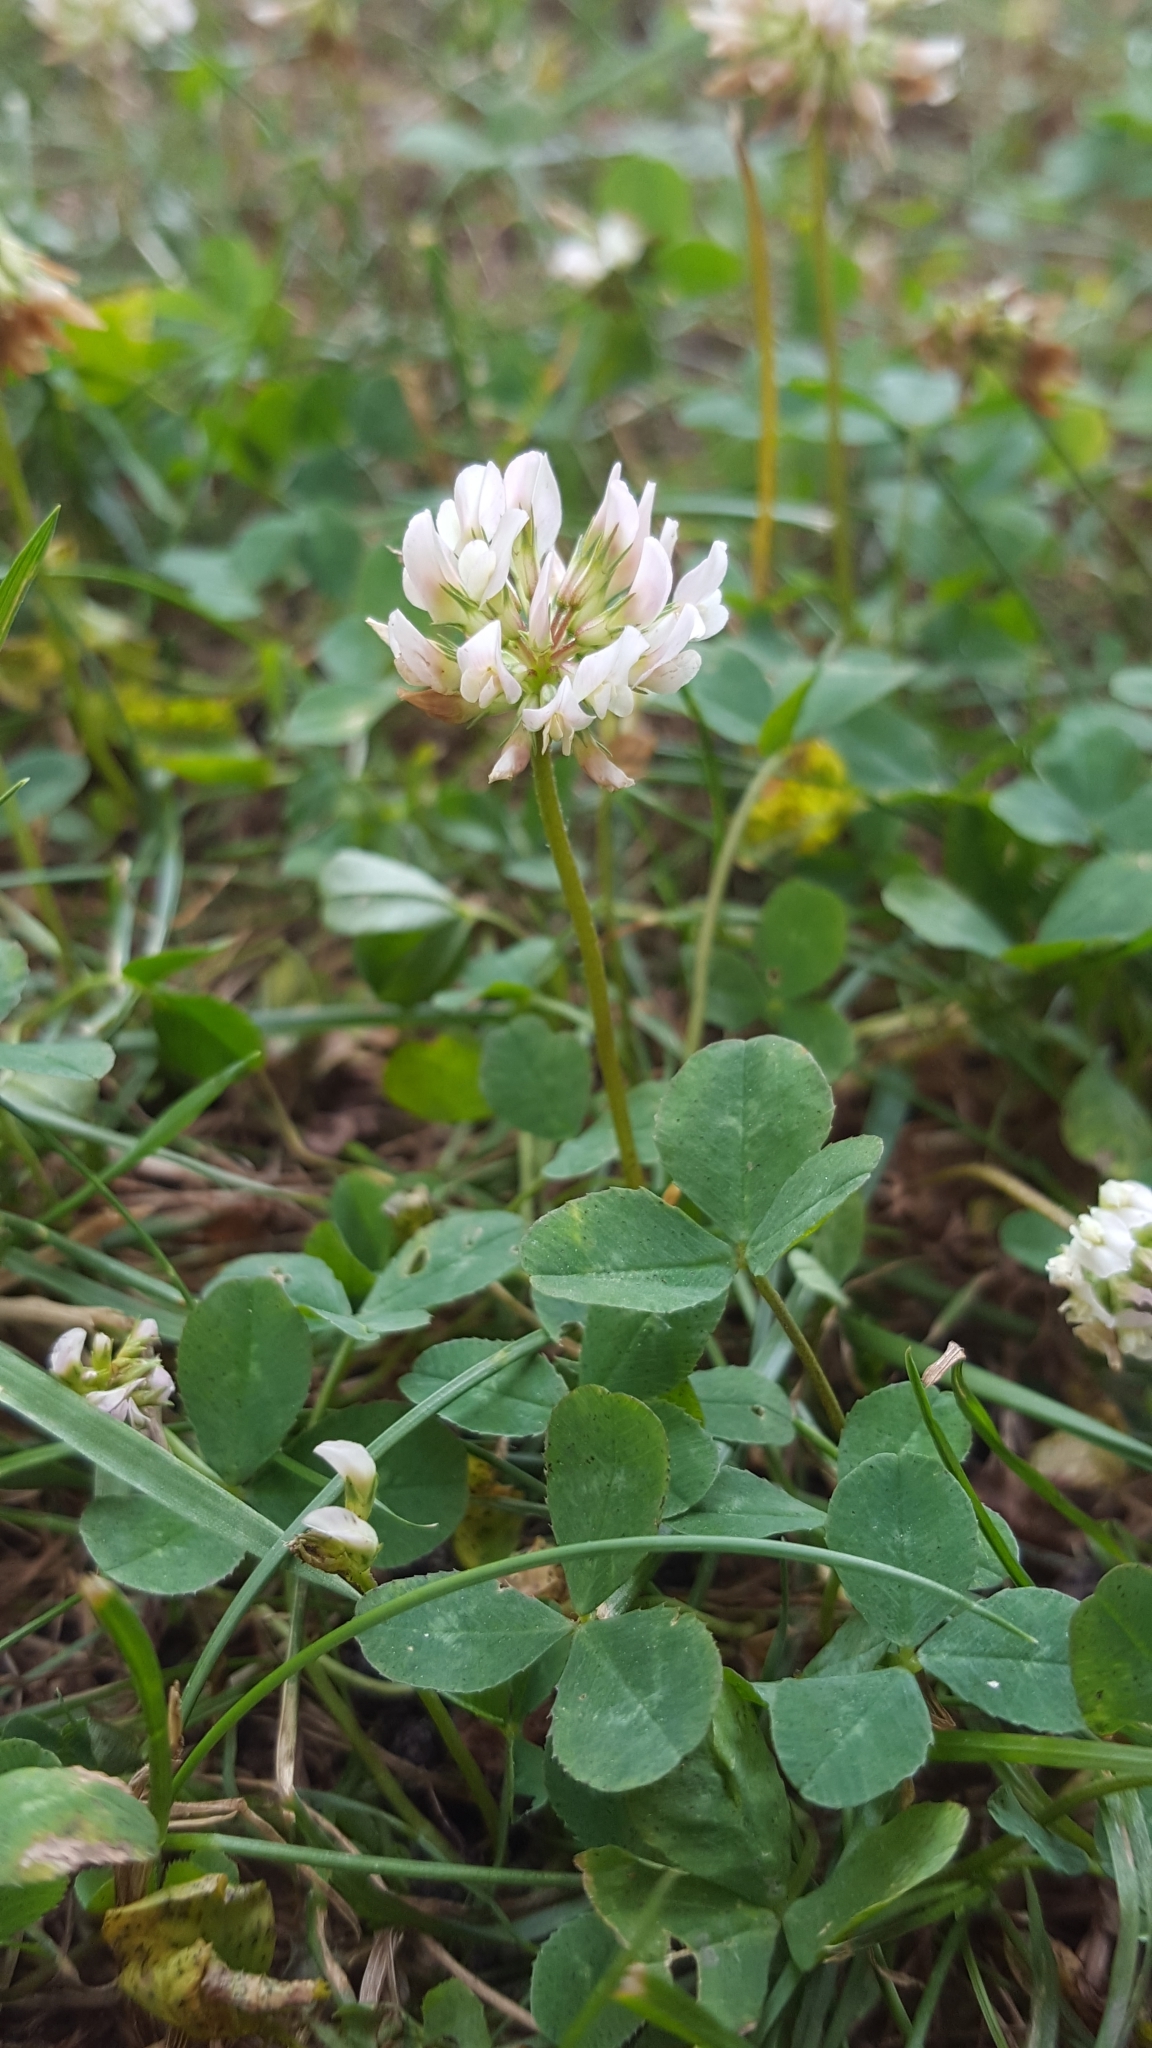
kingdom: Plantae
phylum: Tracheophyta
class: Magnoliopsida
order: Fabales
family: Fabaceae
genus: Trifolium
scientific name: Trifolium repens
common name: White clover
